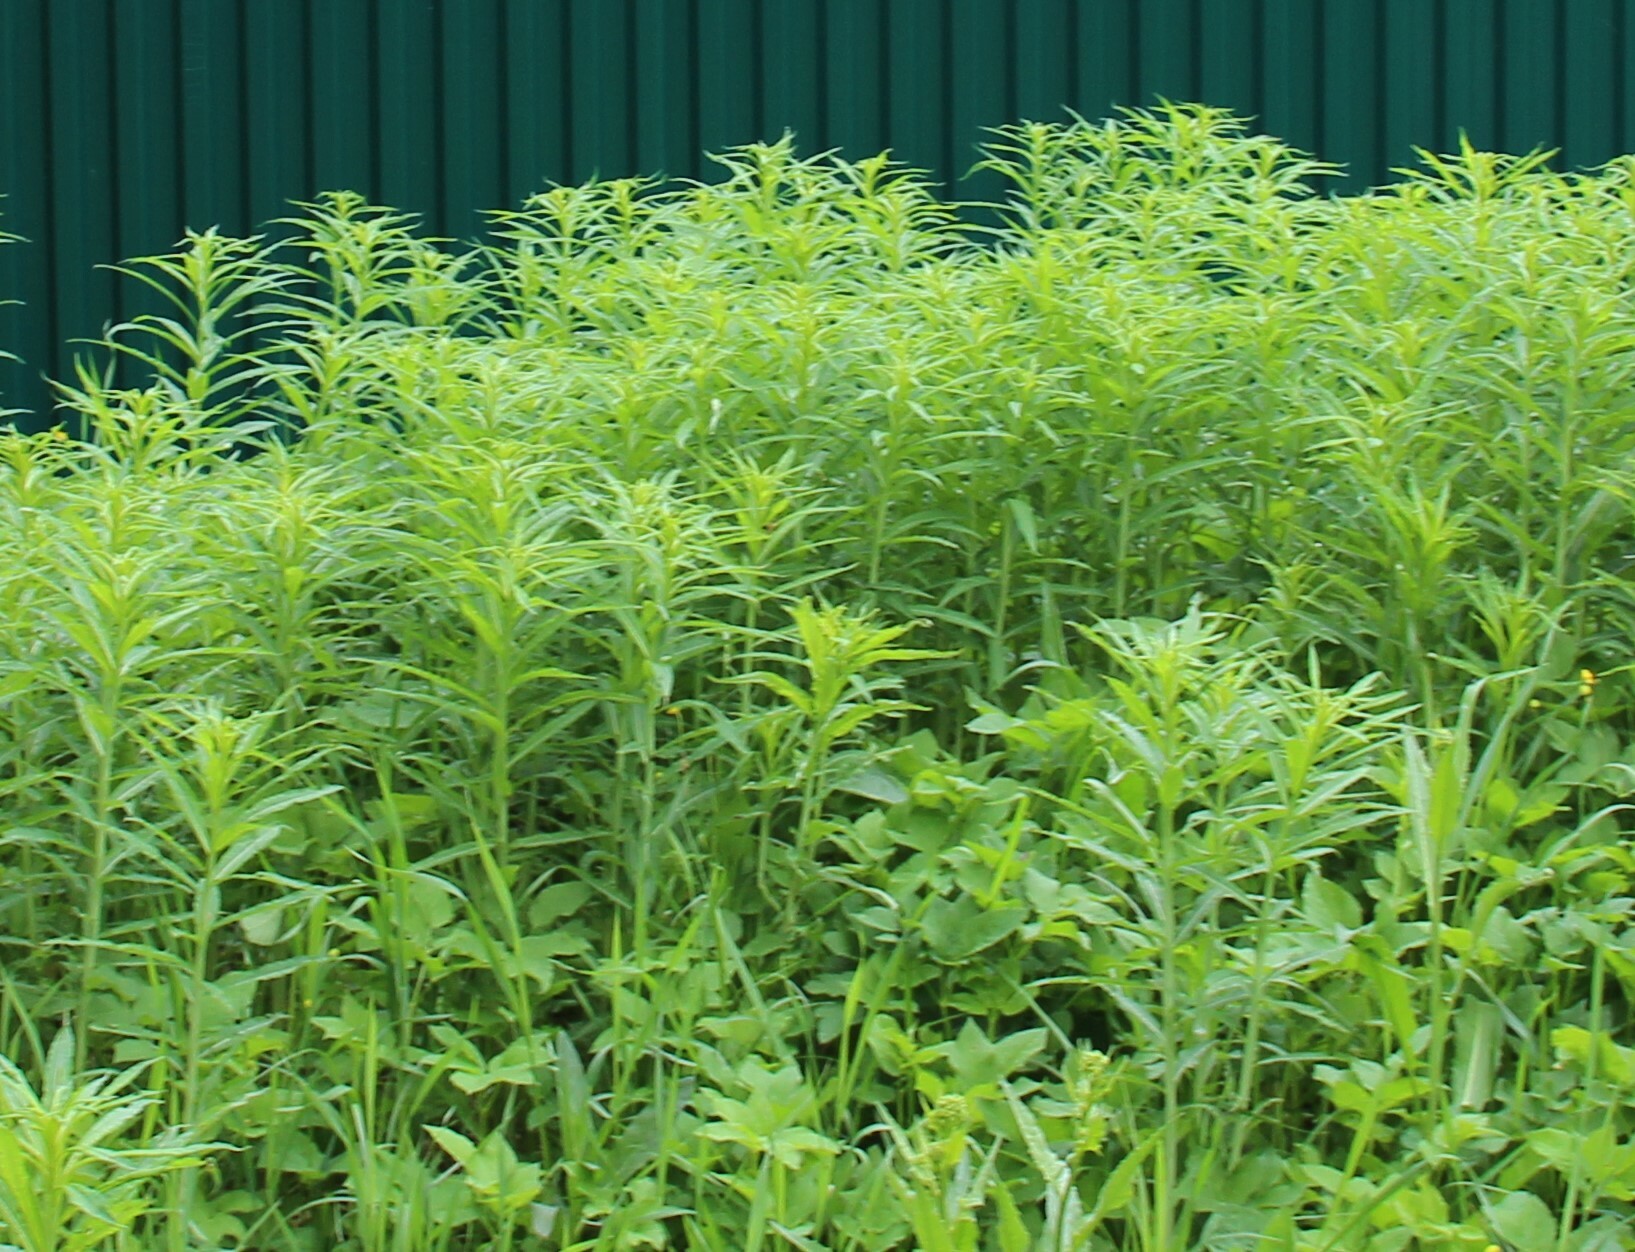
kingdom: Plantae
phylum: Tracheophyta
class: Magnoliopsida
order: Asterales
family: Asteraceae
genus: Solidago
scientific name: Solidago gigantea
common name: Giant goldenrod
